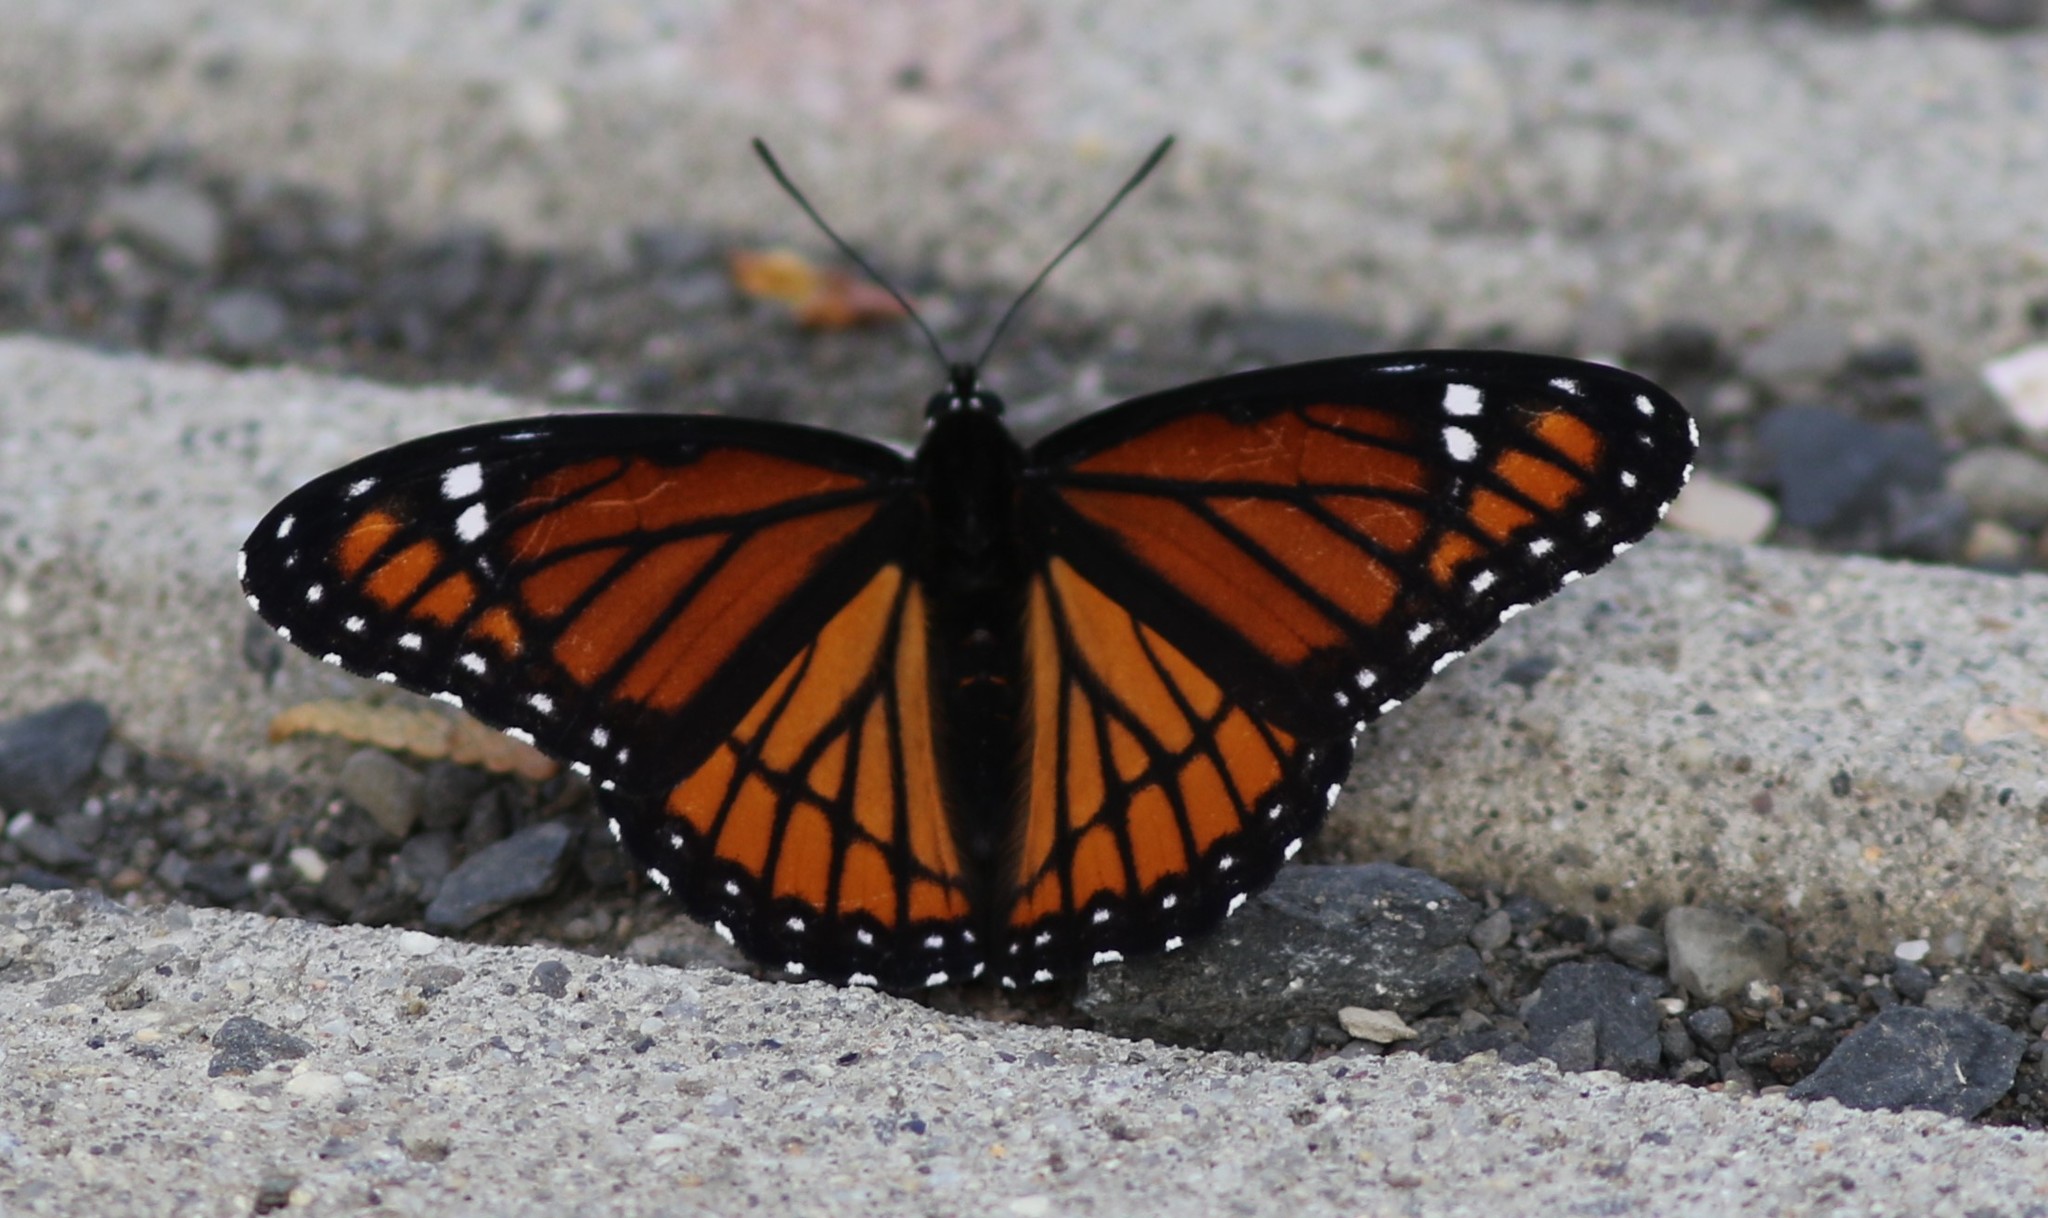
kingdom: Animalia
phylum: Arthropoda
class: Insecta
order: Lepidoptera
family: Nymphalidae
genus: Limenitis
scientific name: Limenitis archippus
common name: Viceroy
